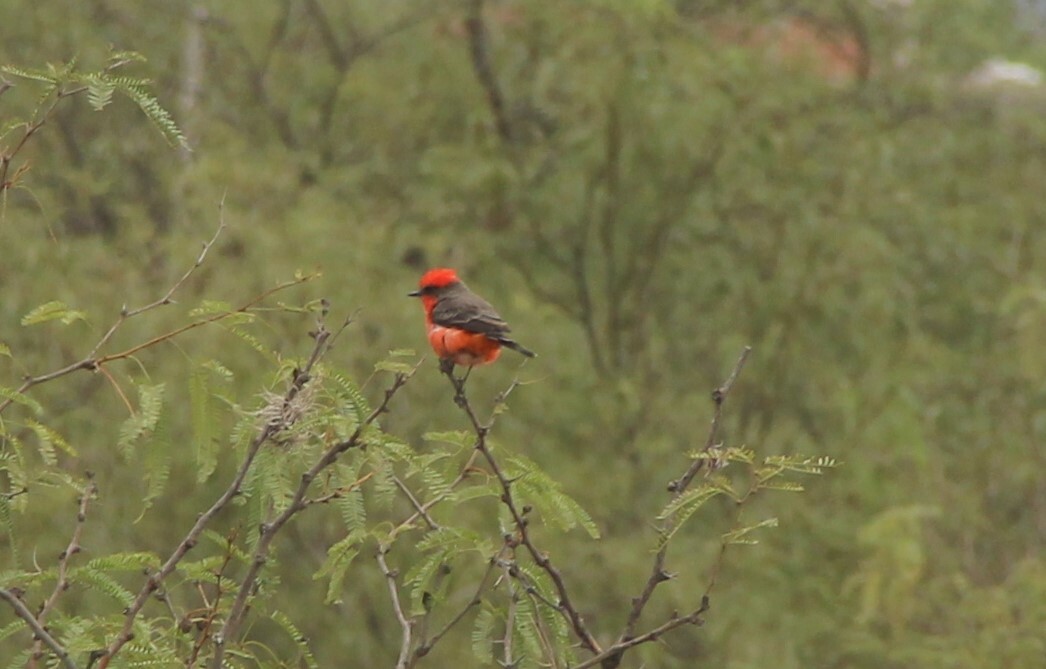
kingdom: Animalia
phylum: Chordata
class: Aves
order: Passeriformes
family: Tyrannidae
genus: Pyrocephalus
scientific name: Pyrocephalus rubinus
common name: Vermilion flycatcher
